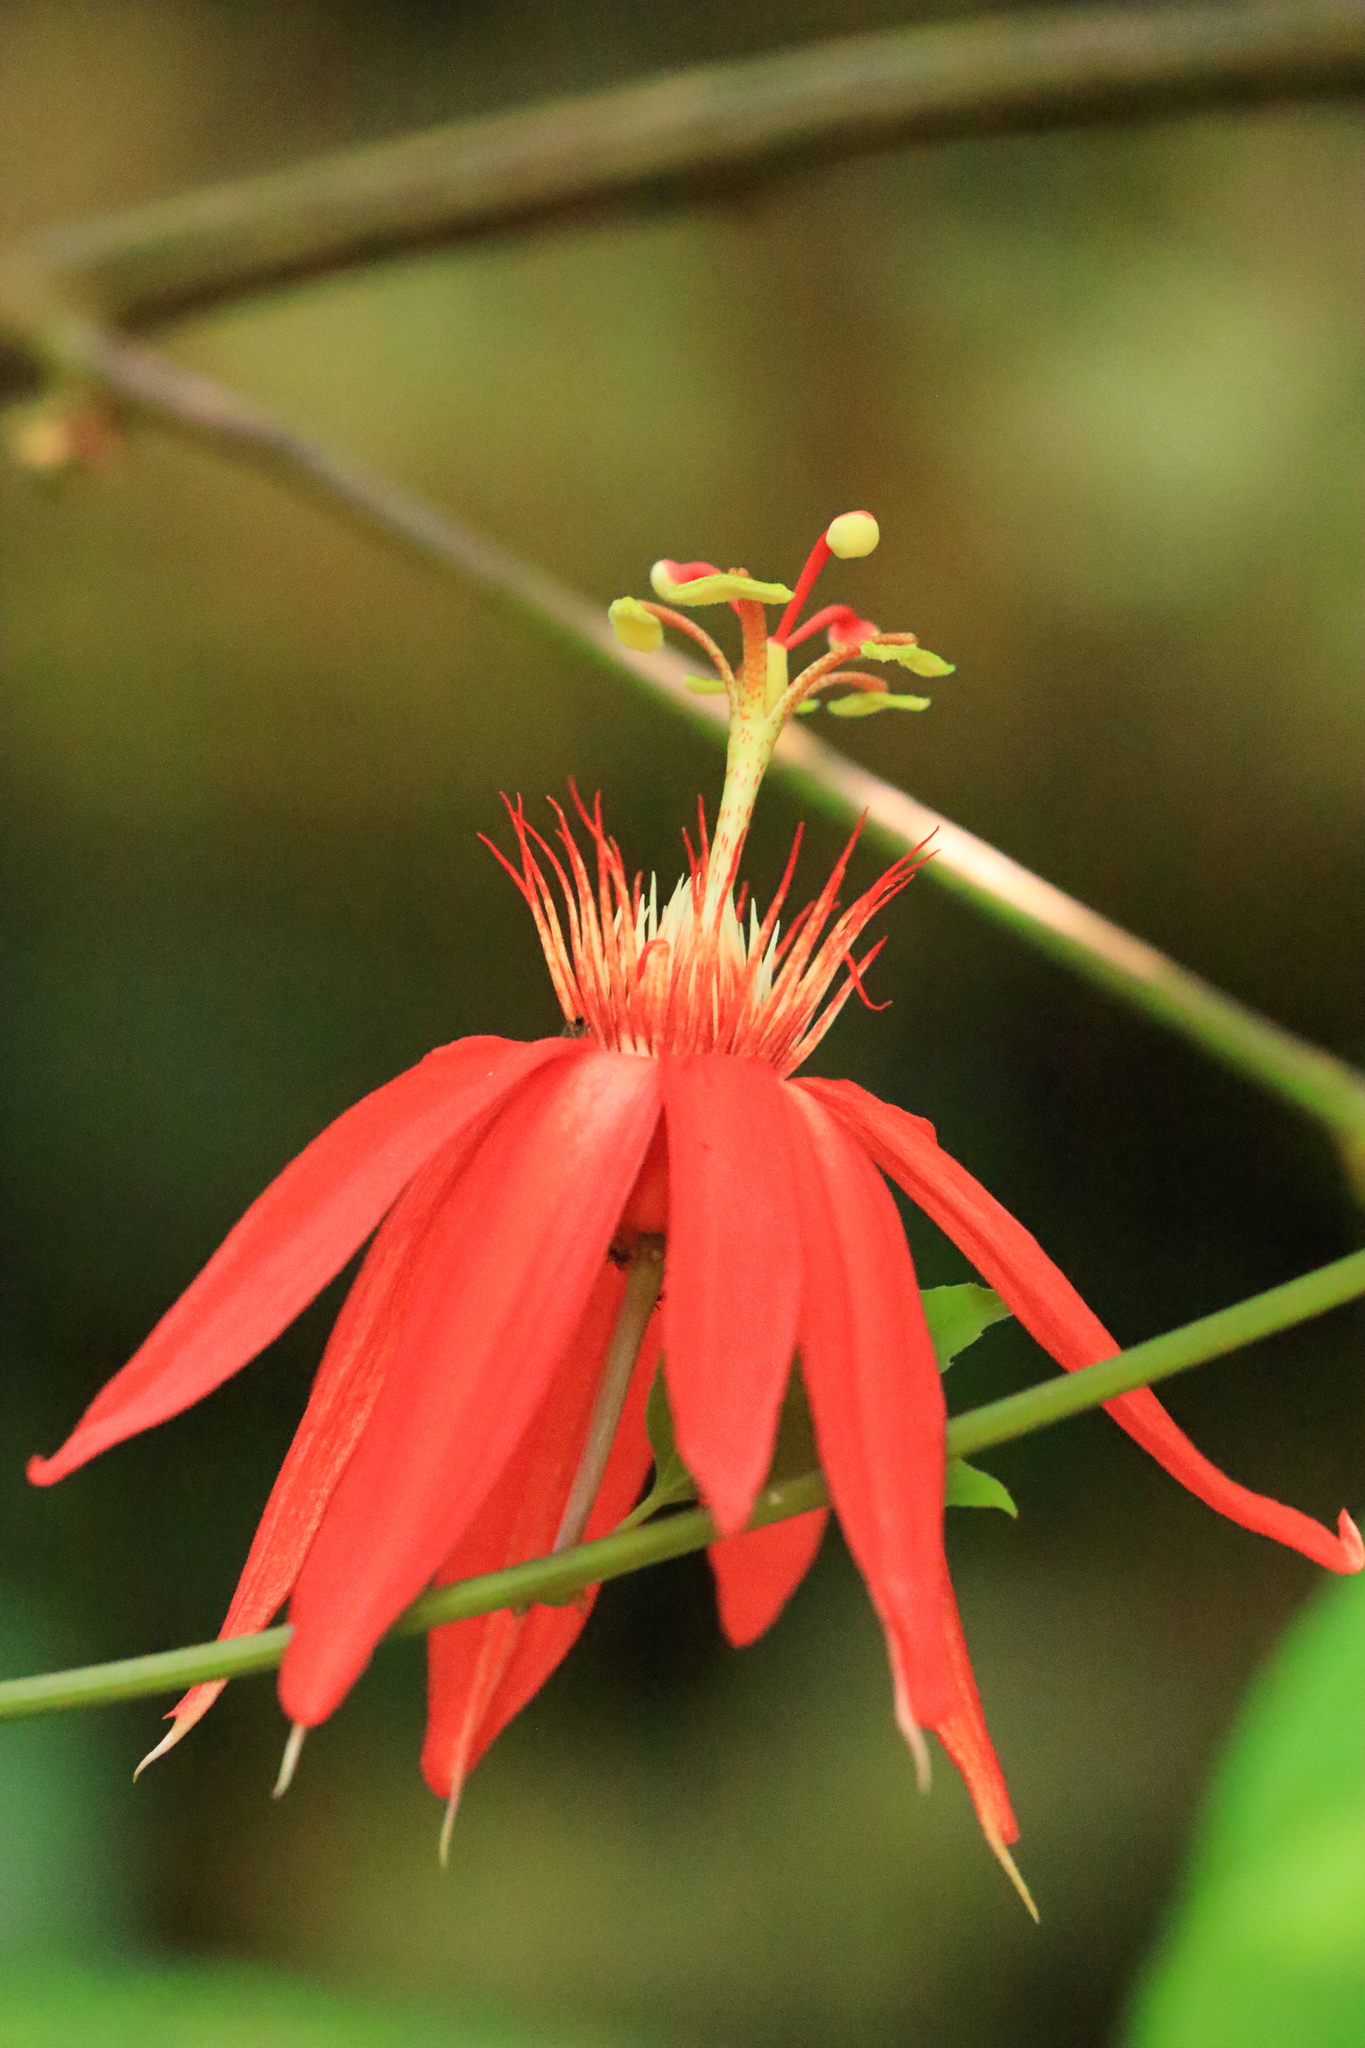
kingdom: Plantae
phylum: Tracheophyta
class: Magnoliopsida
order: Malpighiales
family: Passifloraceae
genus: Passiflora
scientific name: Passiflora vitifolia
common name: Perfumed passionflower
